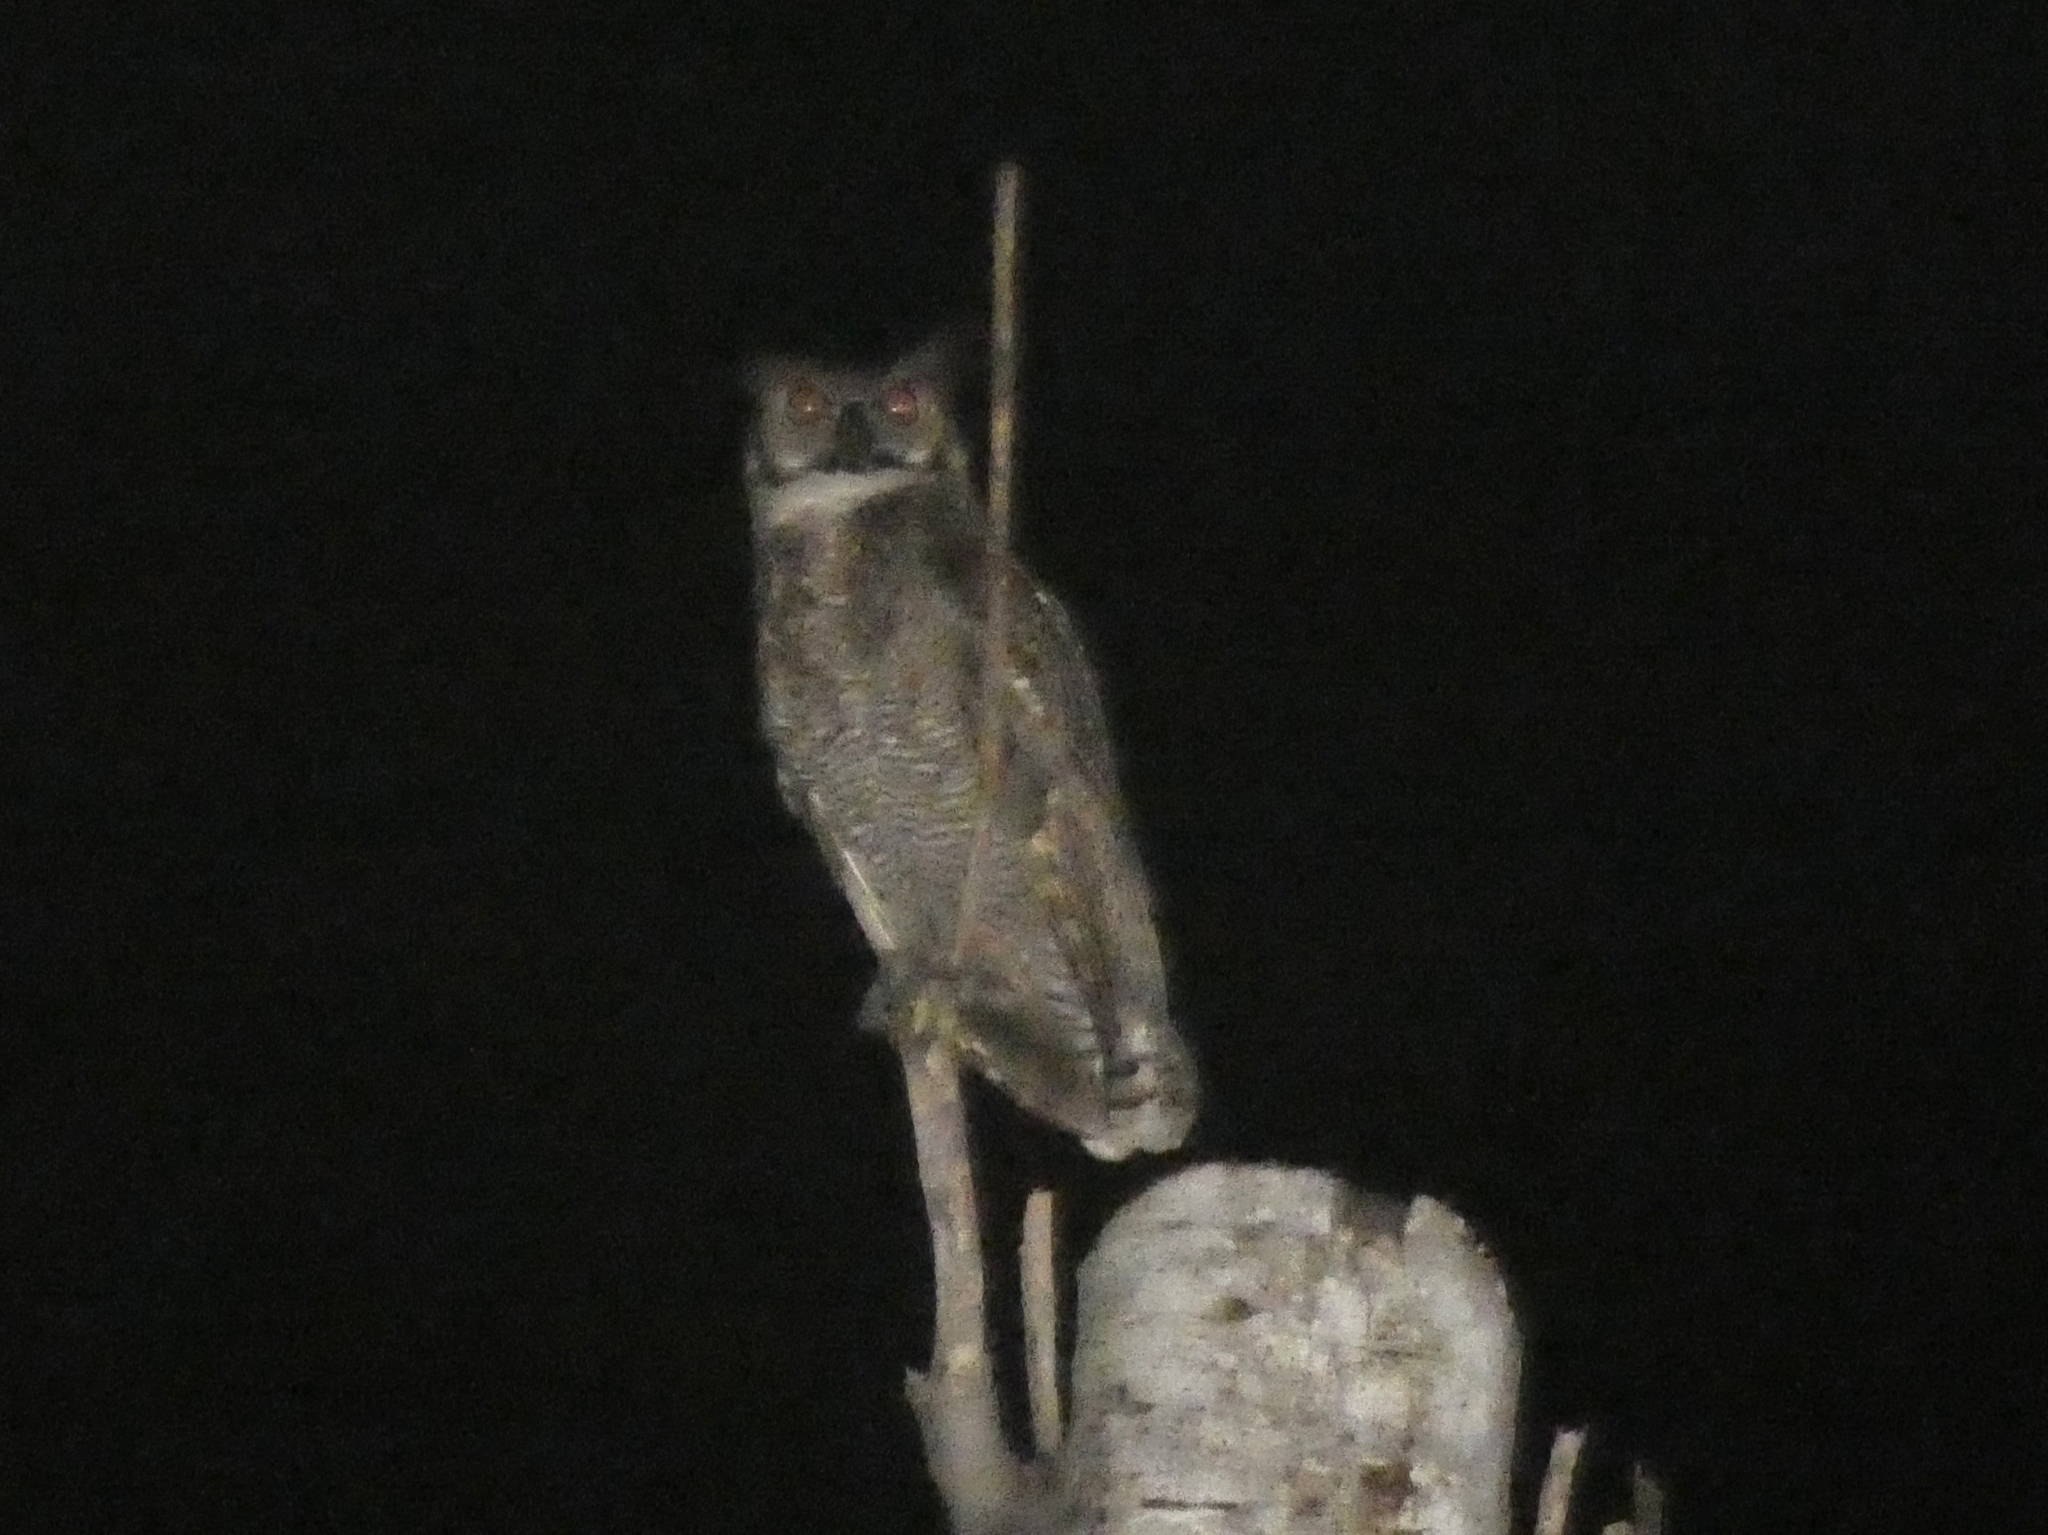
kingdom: Animalia
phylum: Chordata
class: Aves
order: Strigiformes
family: Strigidae
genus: Bubo
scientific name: Bubo virginianus
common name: Great horned owl
